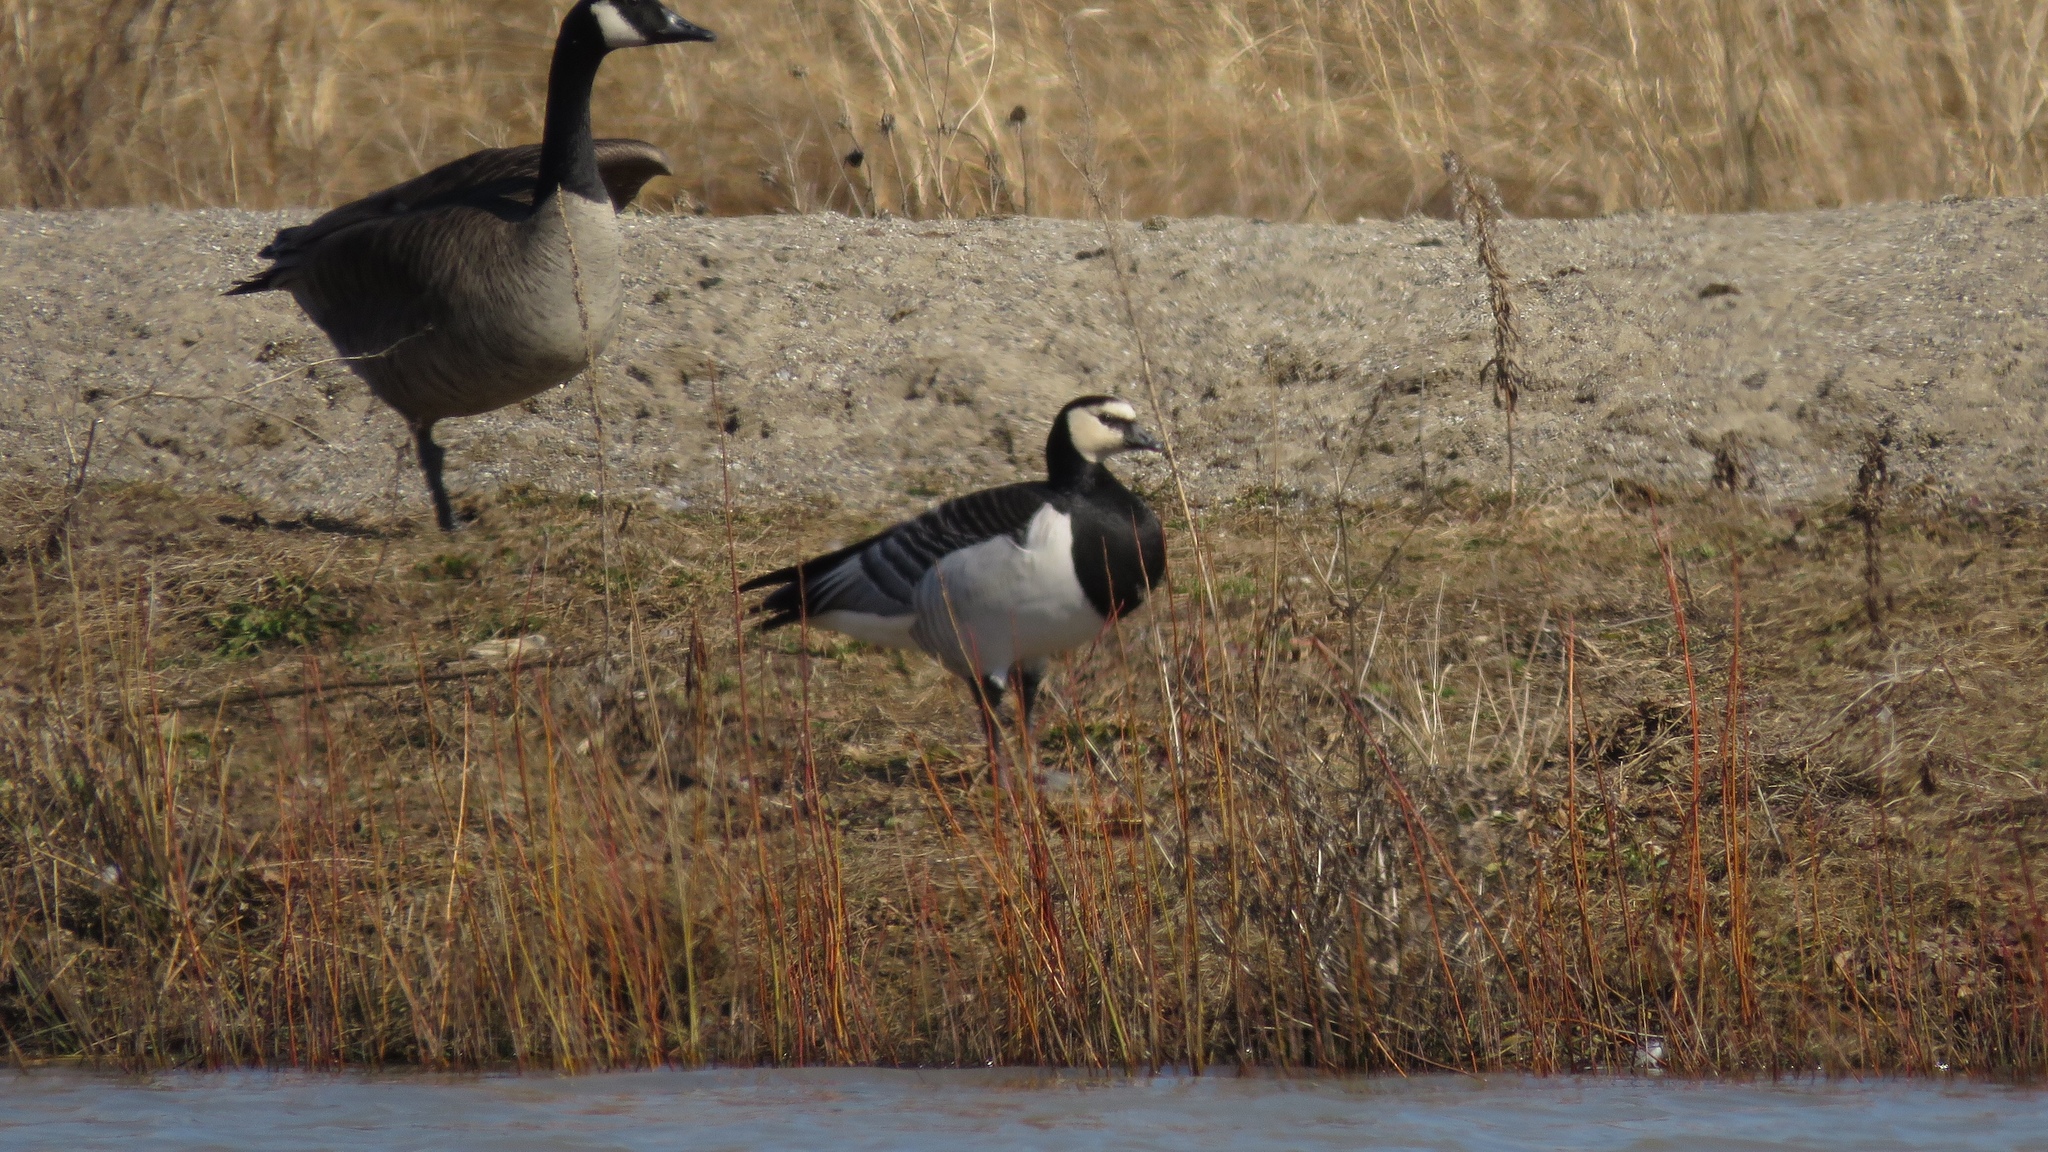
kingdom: Animalia
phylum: Chordata
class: Aves
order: Anseriformes
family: Anatidae
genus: Branta
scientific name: Branta leucopsis
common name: Barnacle goose
